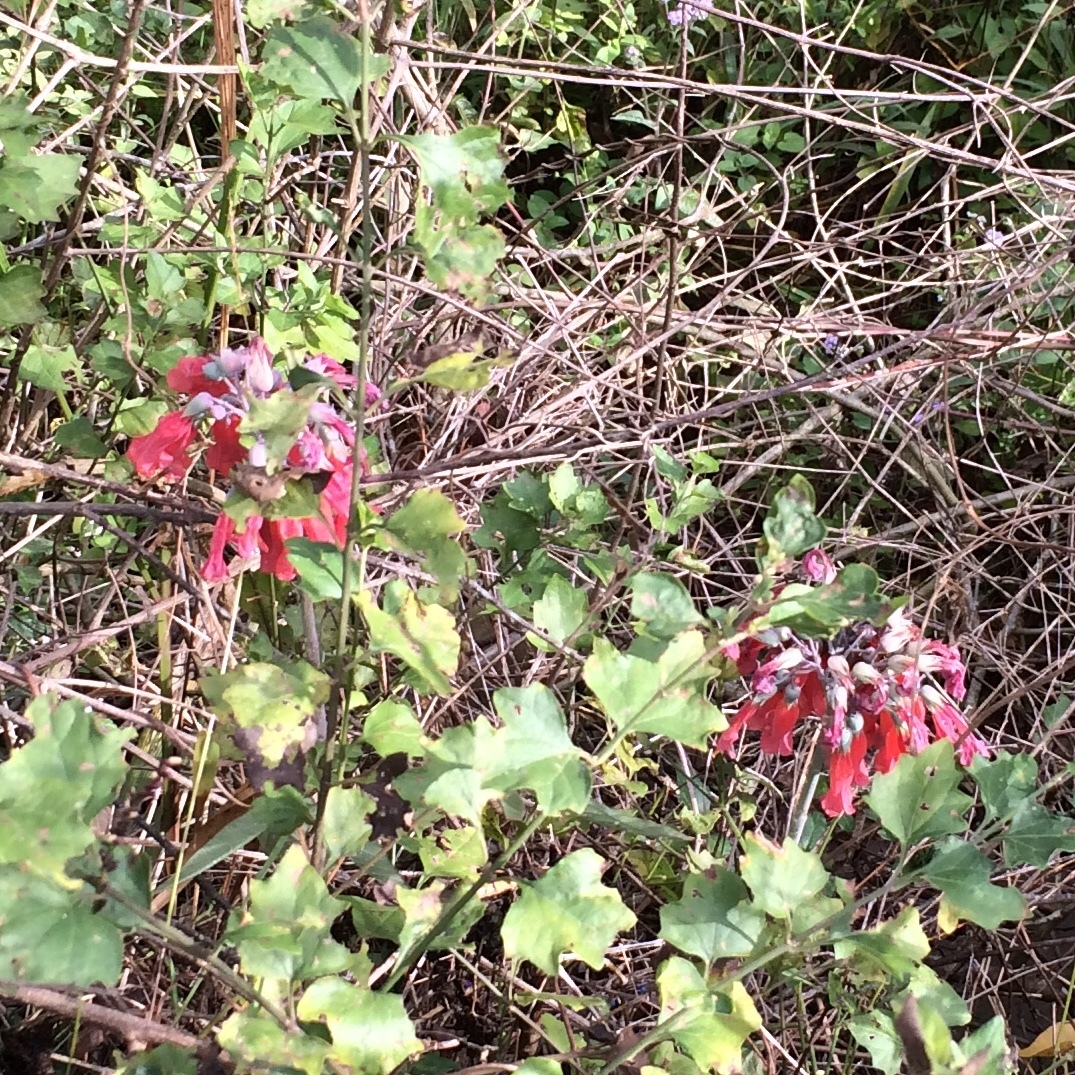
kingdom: Plantae
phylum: Tracheophyta
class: Magnoliopsida
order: Saxifragales
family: Crassulaceae
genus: Kalanchoe
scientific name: Kalanchoe delagoensis
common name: Chandelier plant
